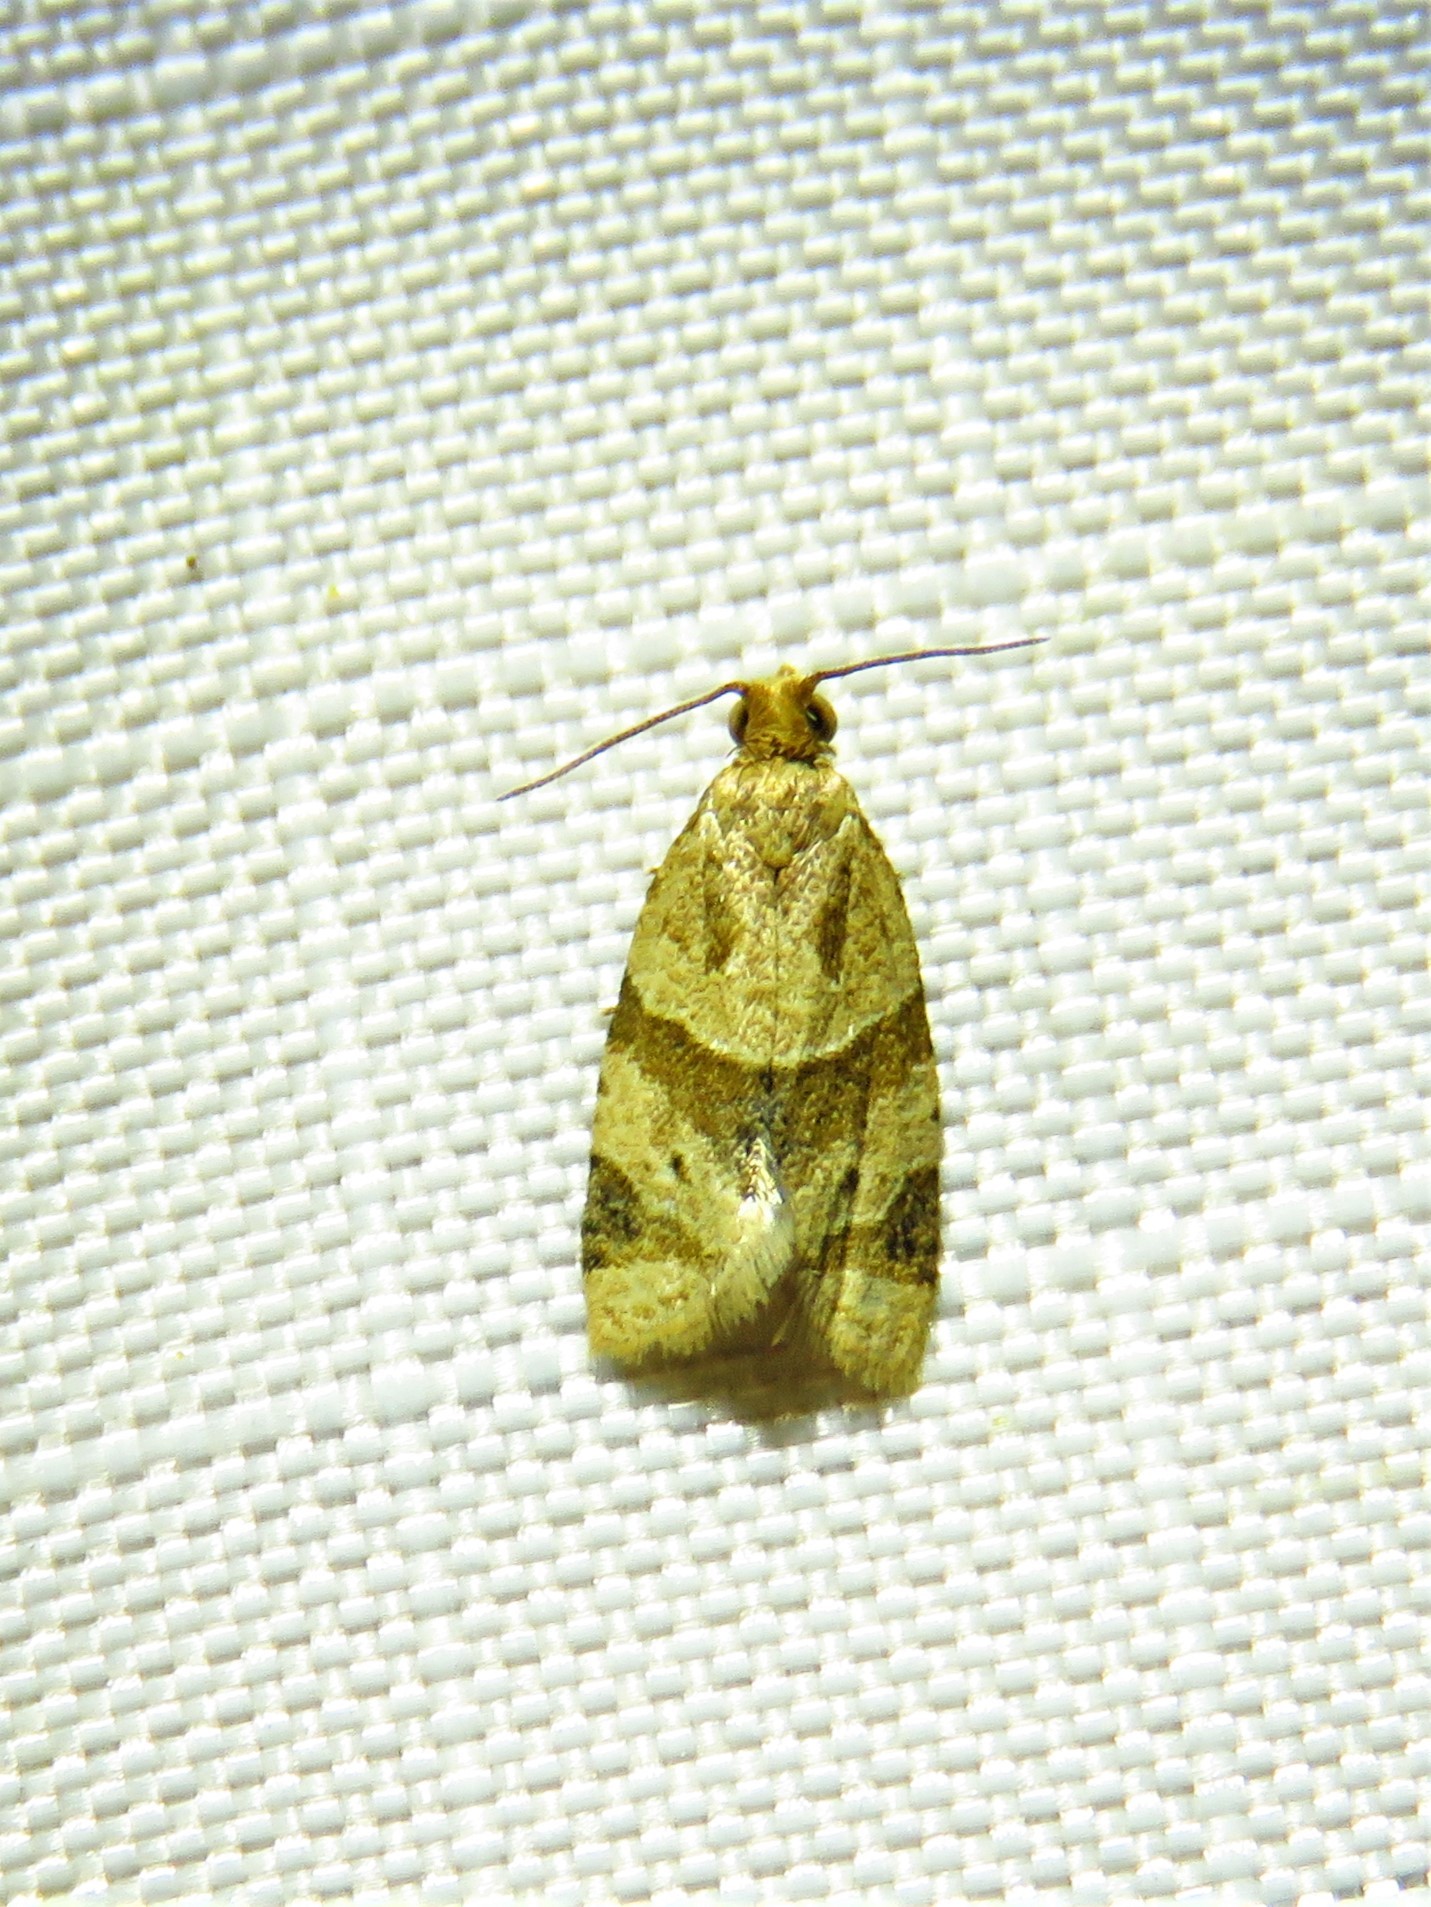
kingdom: Animalia
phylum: Arthropoda
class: Insecta
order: Lepidoptera
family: Tortricidae
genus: Clepsis
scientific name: Clepsis peritana
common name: Garden tortrix
